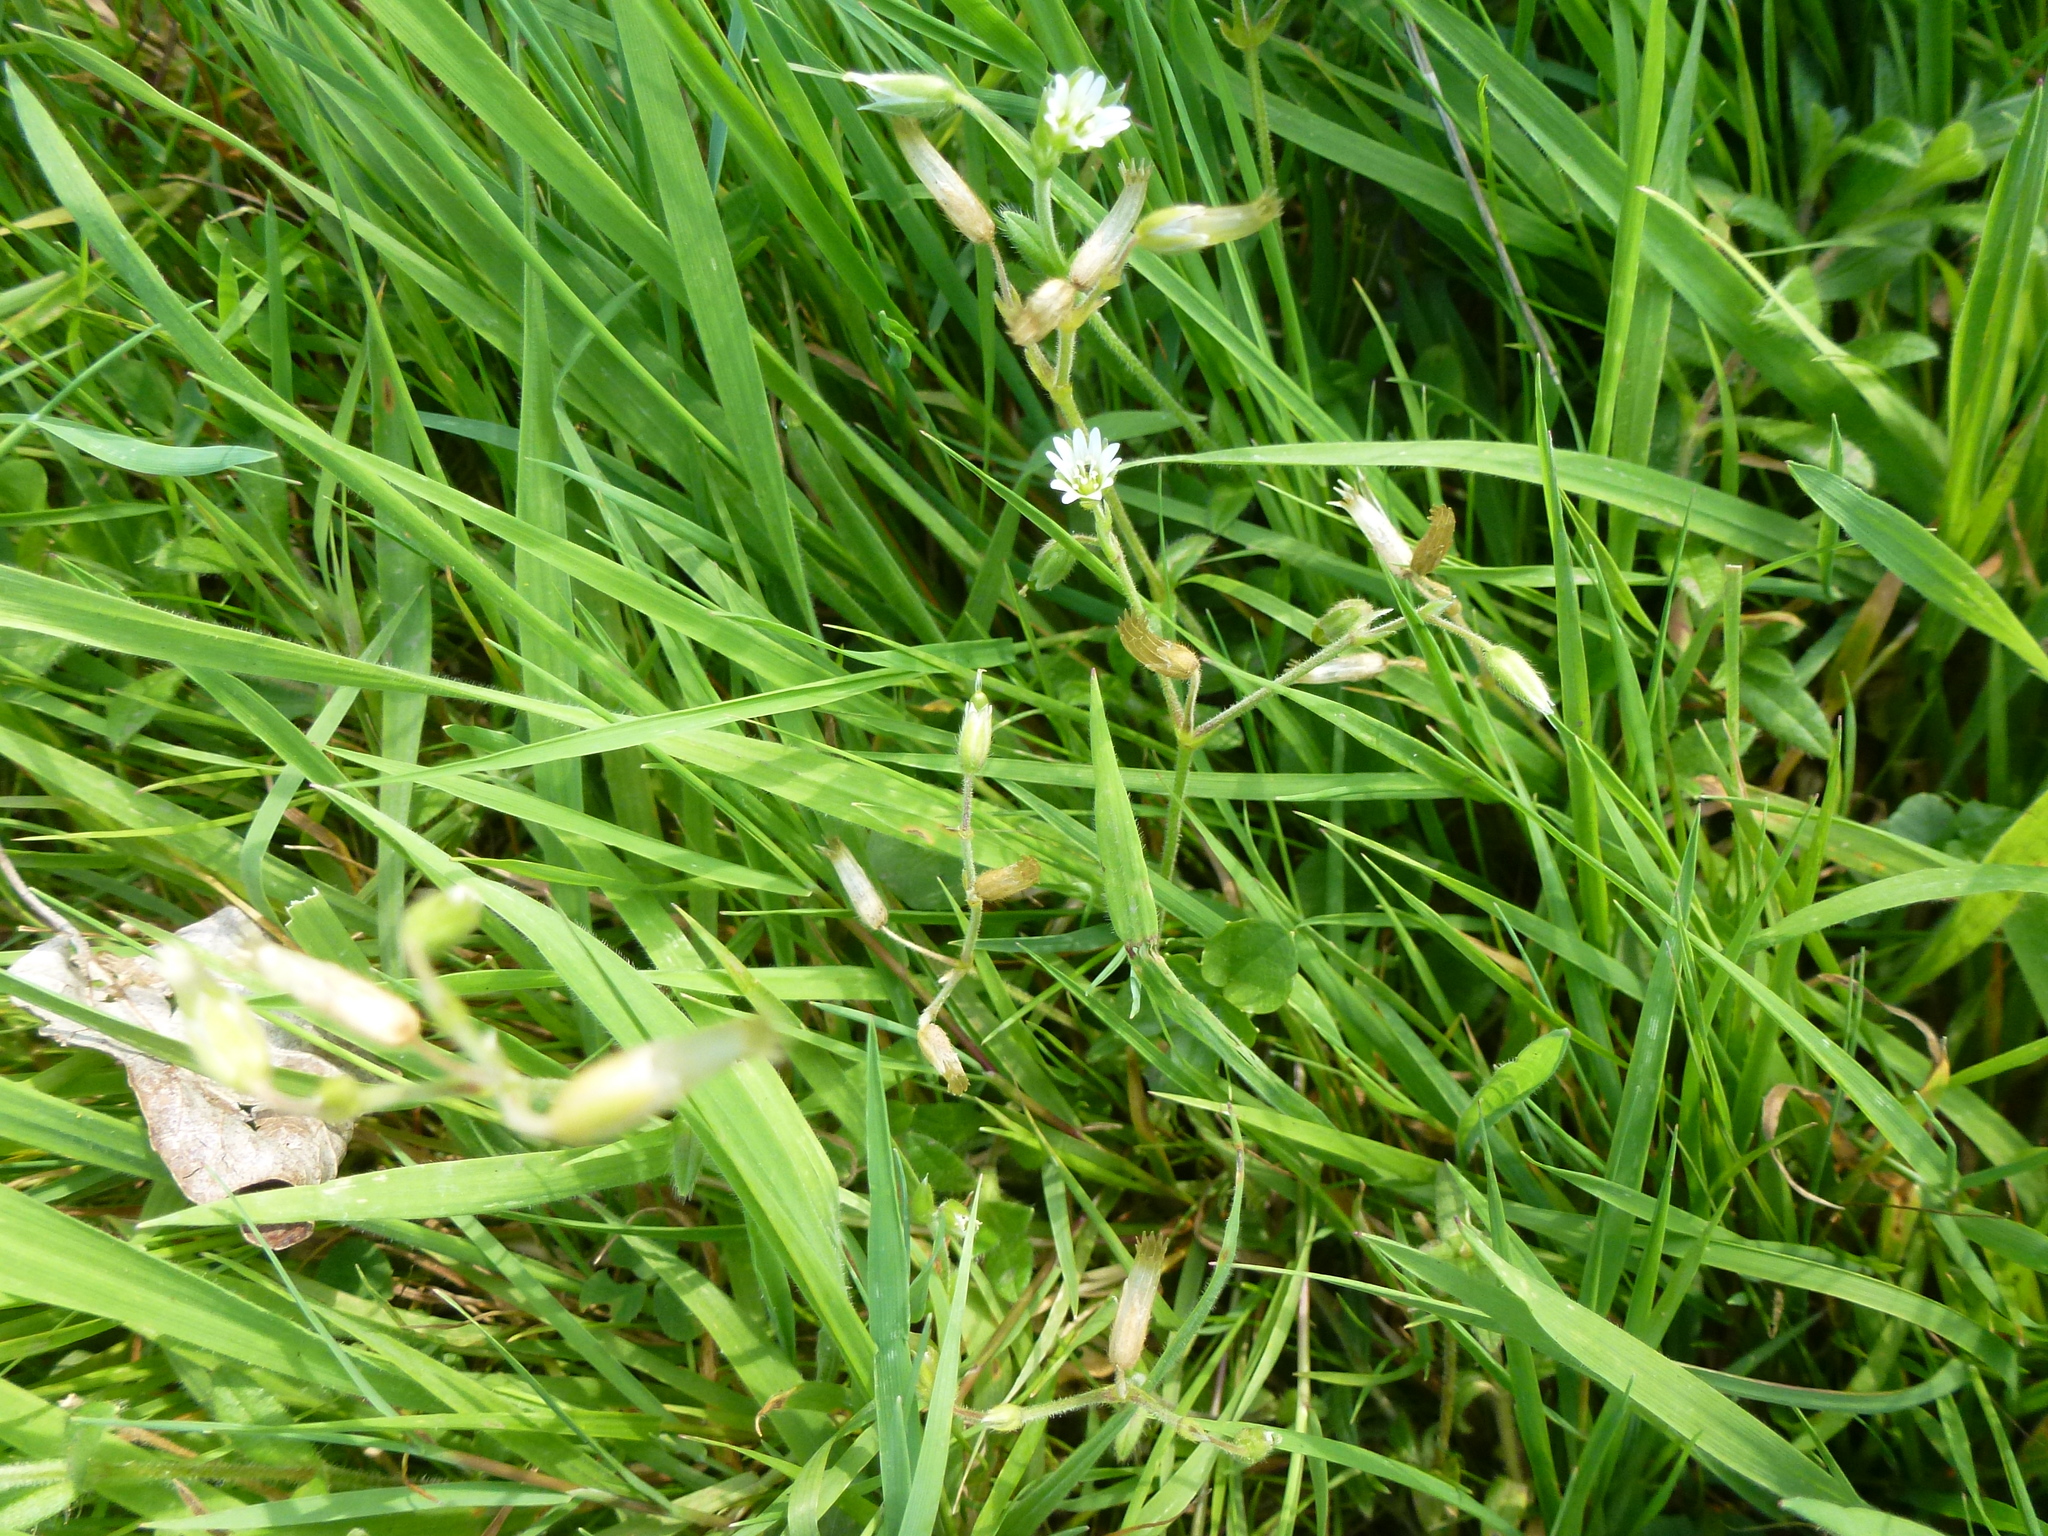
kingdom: Plantae
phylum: Tracheophyta
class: Magnoliopsida
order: Caryophyllales
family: Caryophyllaceae
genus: Cerastium
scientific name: Cerastium fontanum
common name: Common mouse-ear
